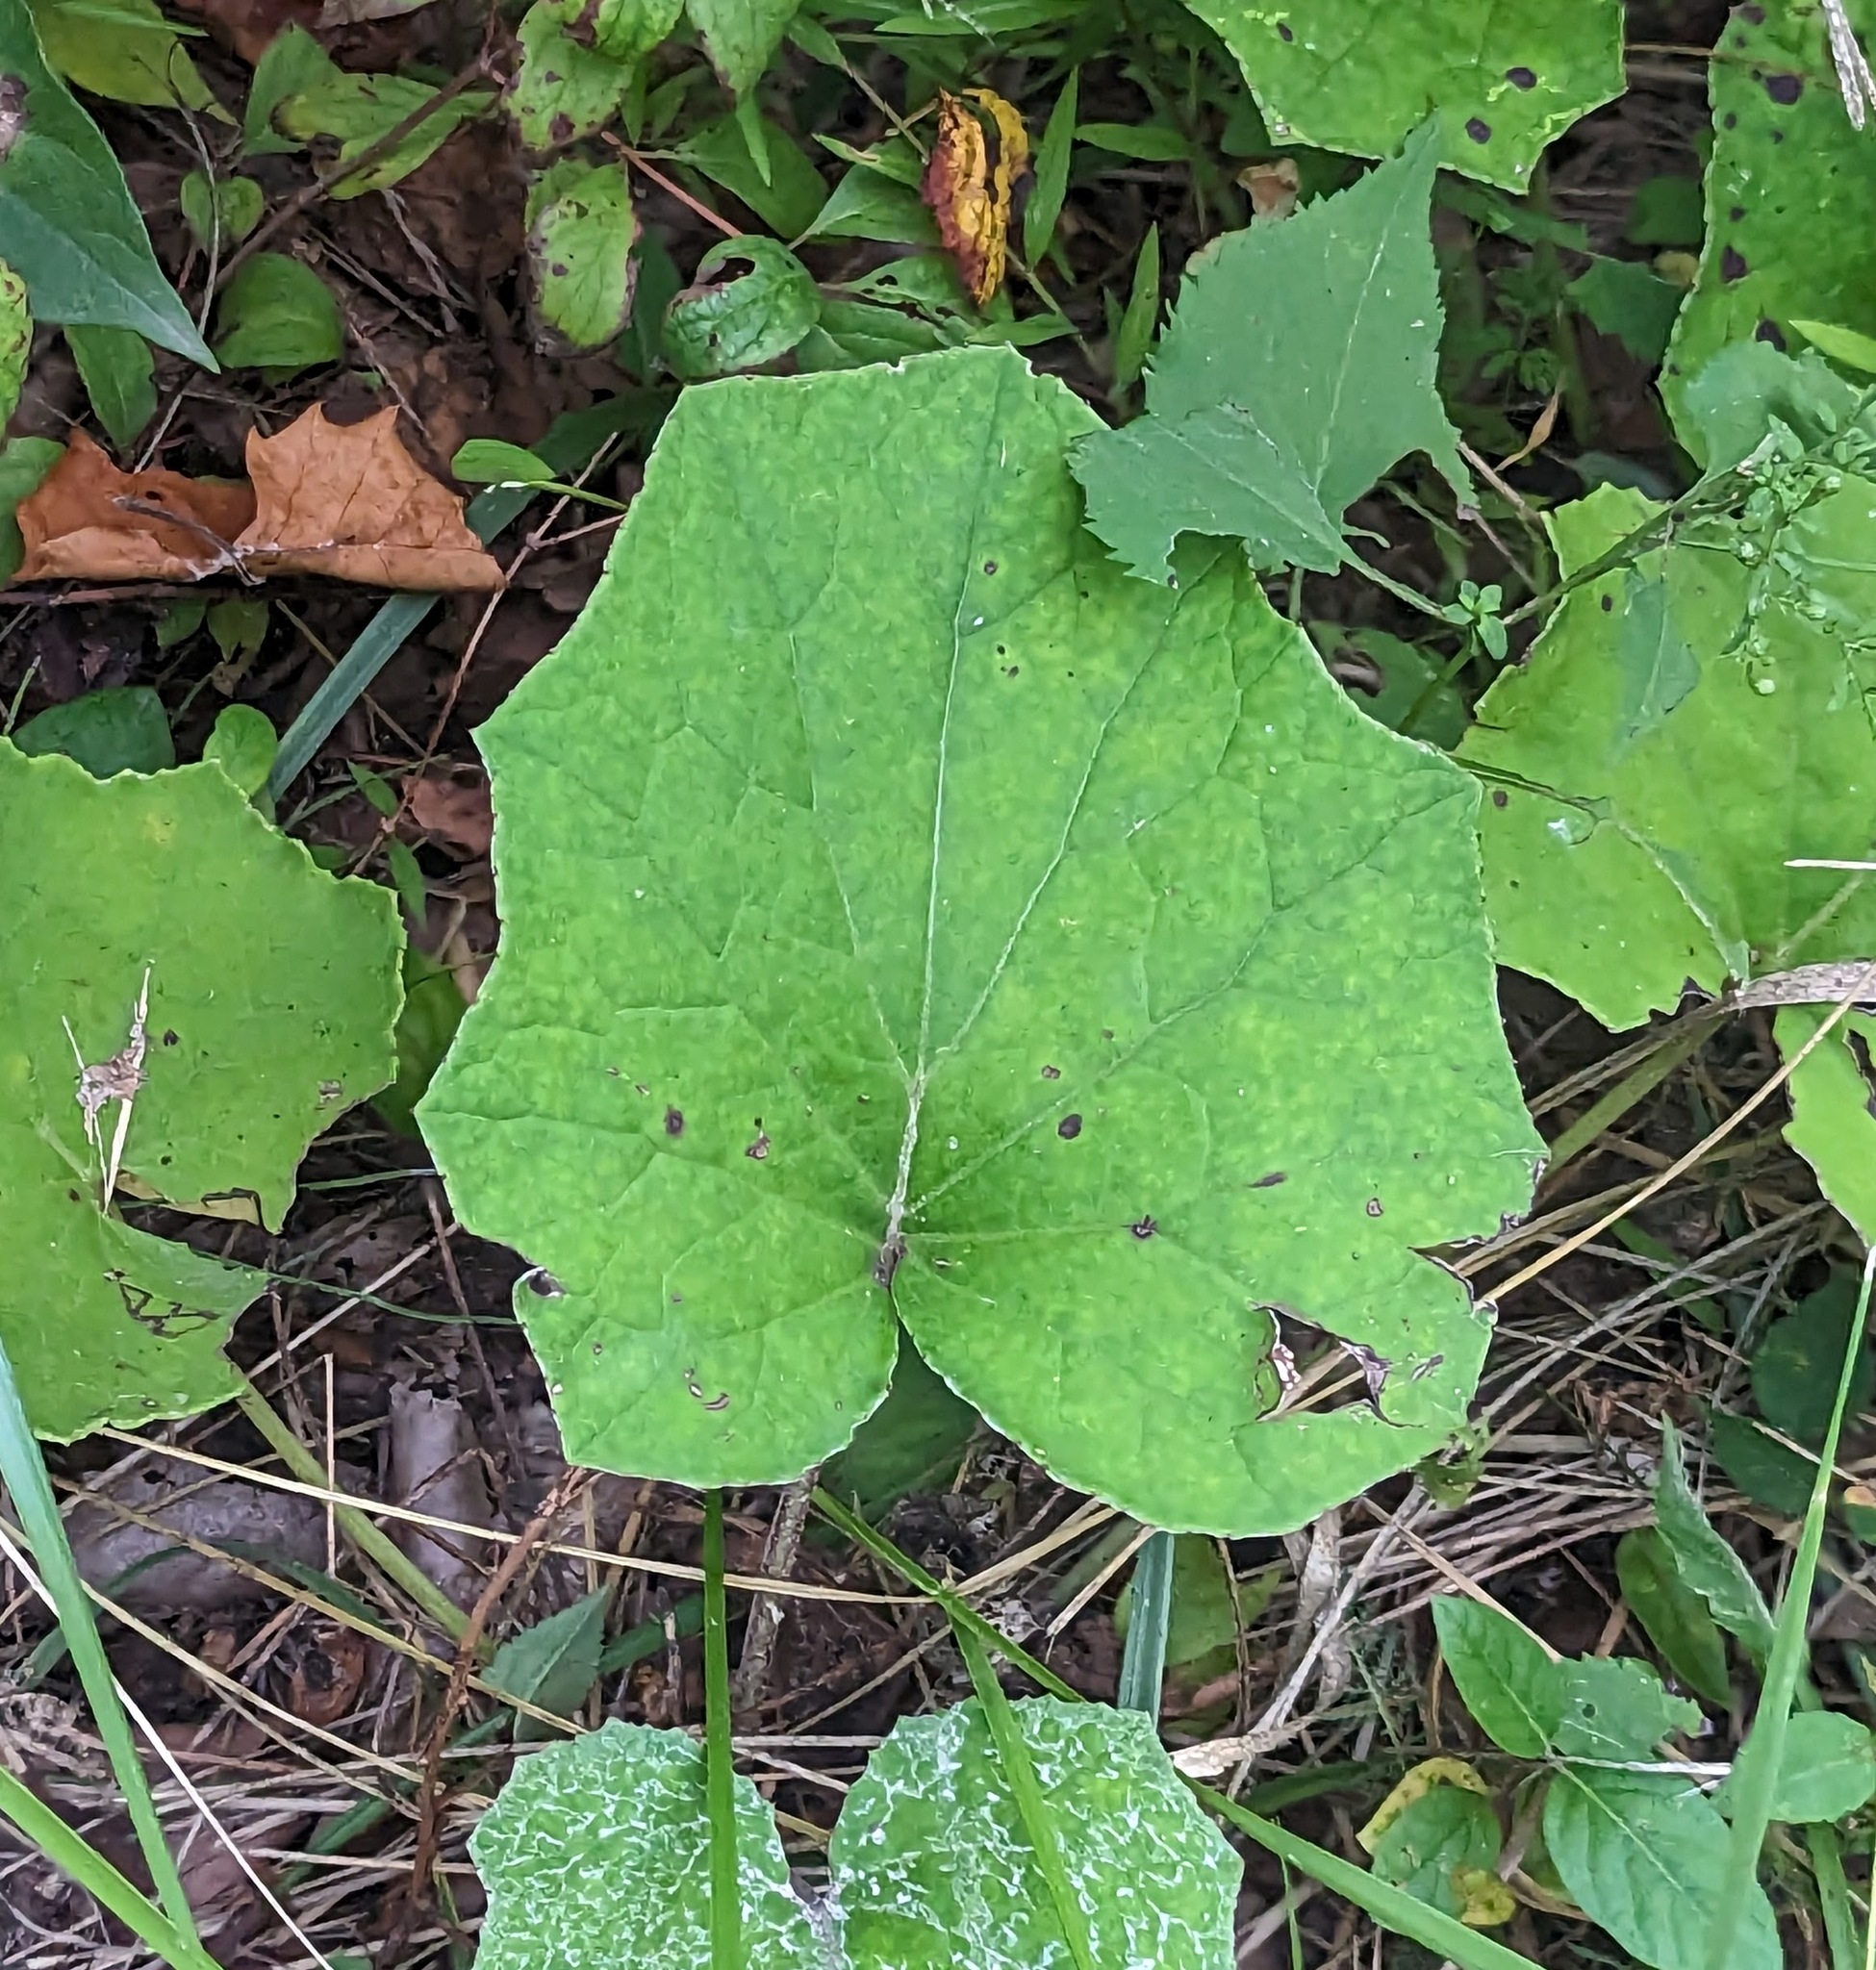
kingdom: Plantae
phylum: Tracheophyta
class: Magnoliopsida
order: Asterales
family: Asteraceae
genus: Tussilago
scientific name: Tussilago farfara
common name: Coltsfoot
